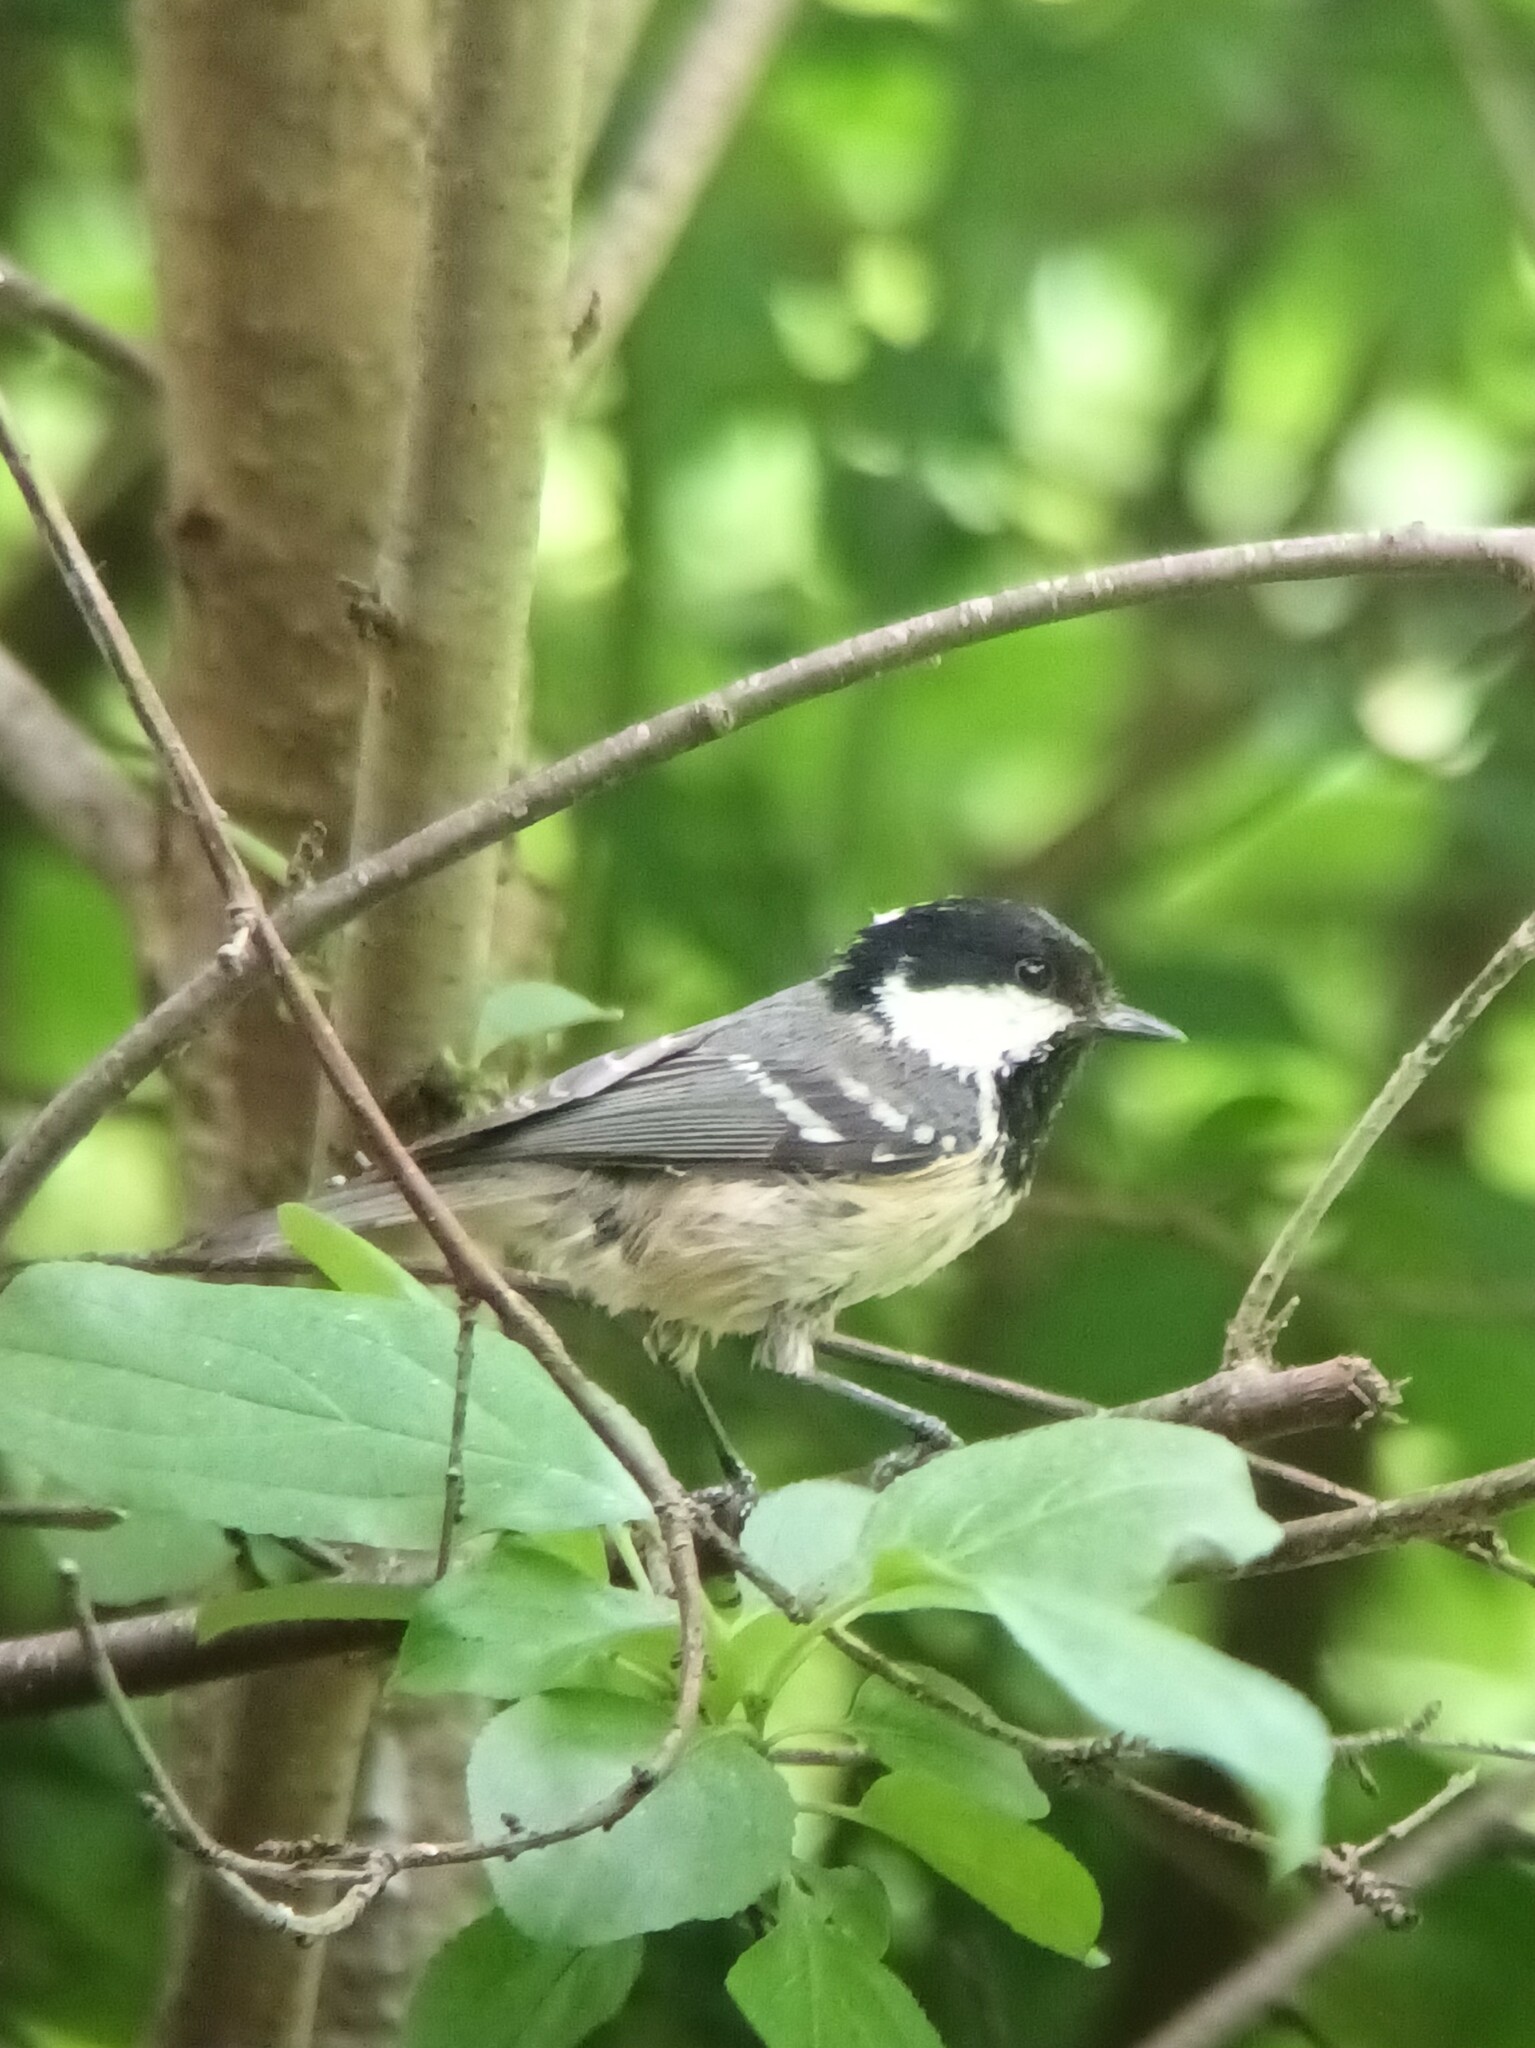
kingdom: Animalia
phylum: Chordata
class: Aves
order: Passeriformes
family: Paridae
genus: Periparus
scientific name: Periparus ater
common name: Coal tit
